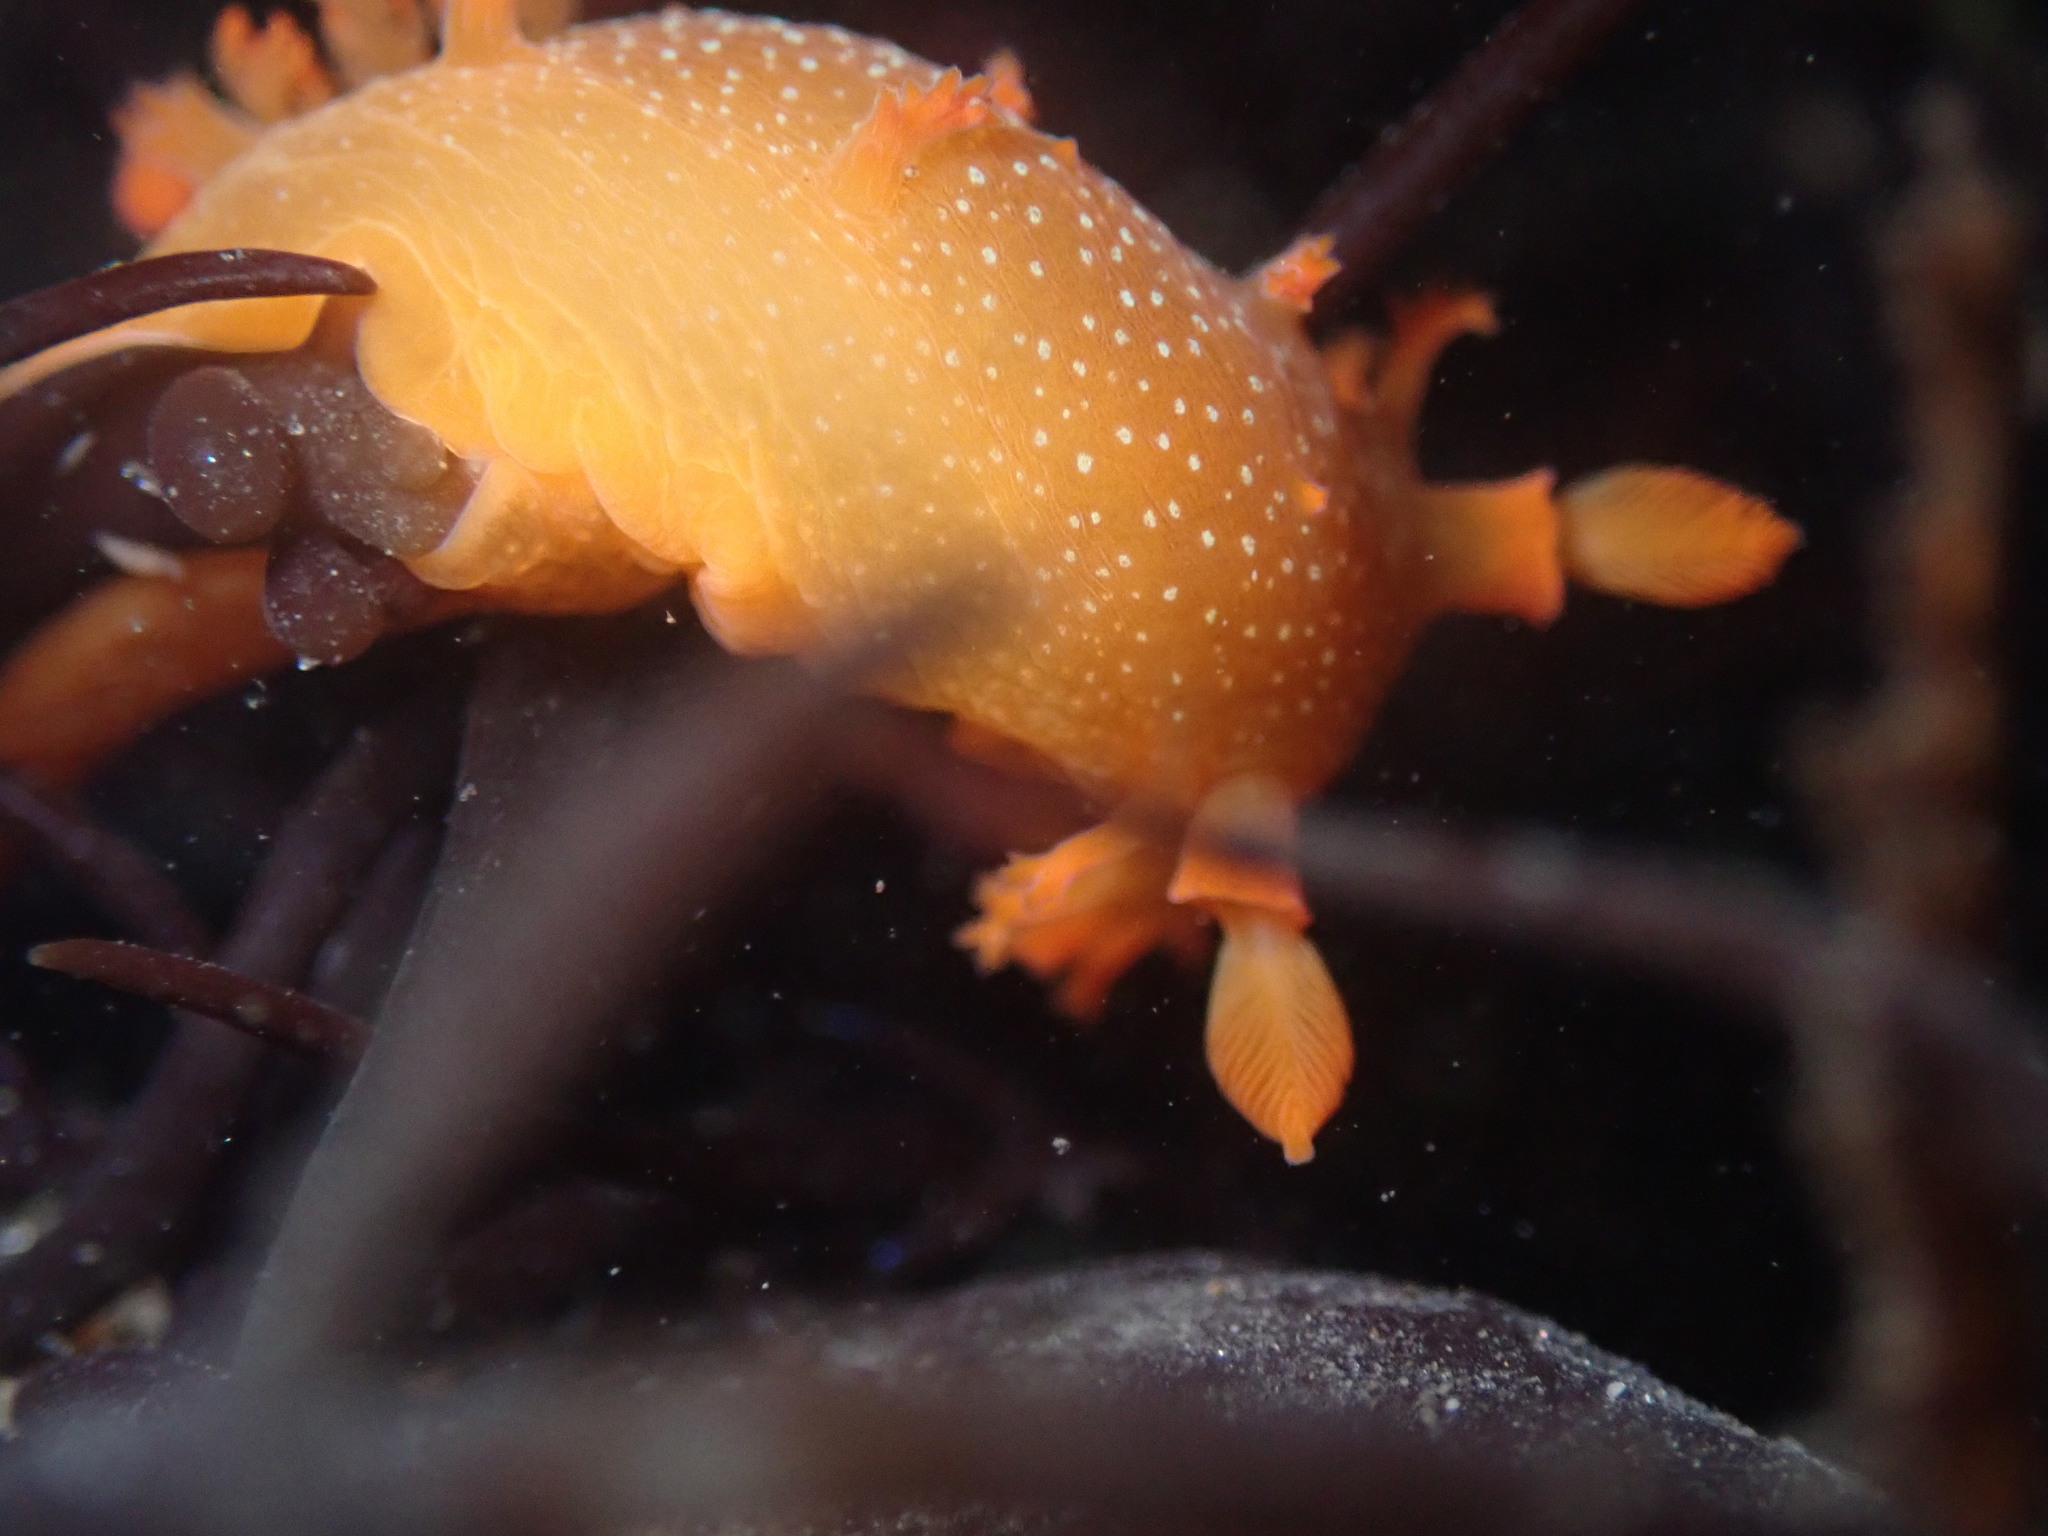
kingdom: Animalia
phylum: Mollusca
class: Gastropoda
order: Nudibranchia
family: Polyceridae
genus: Triopha
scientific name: Triopha maculata
